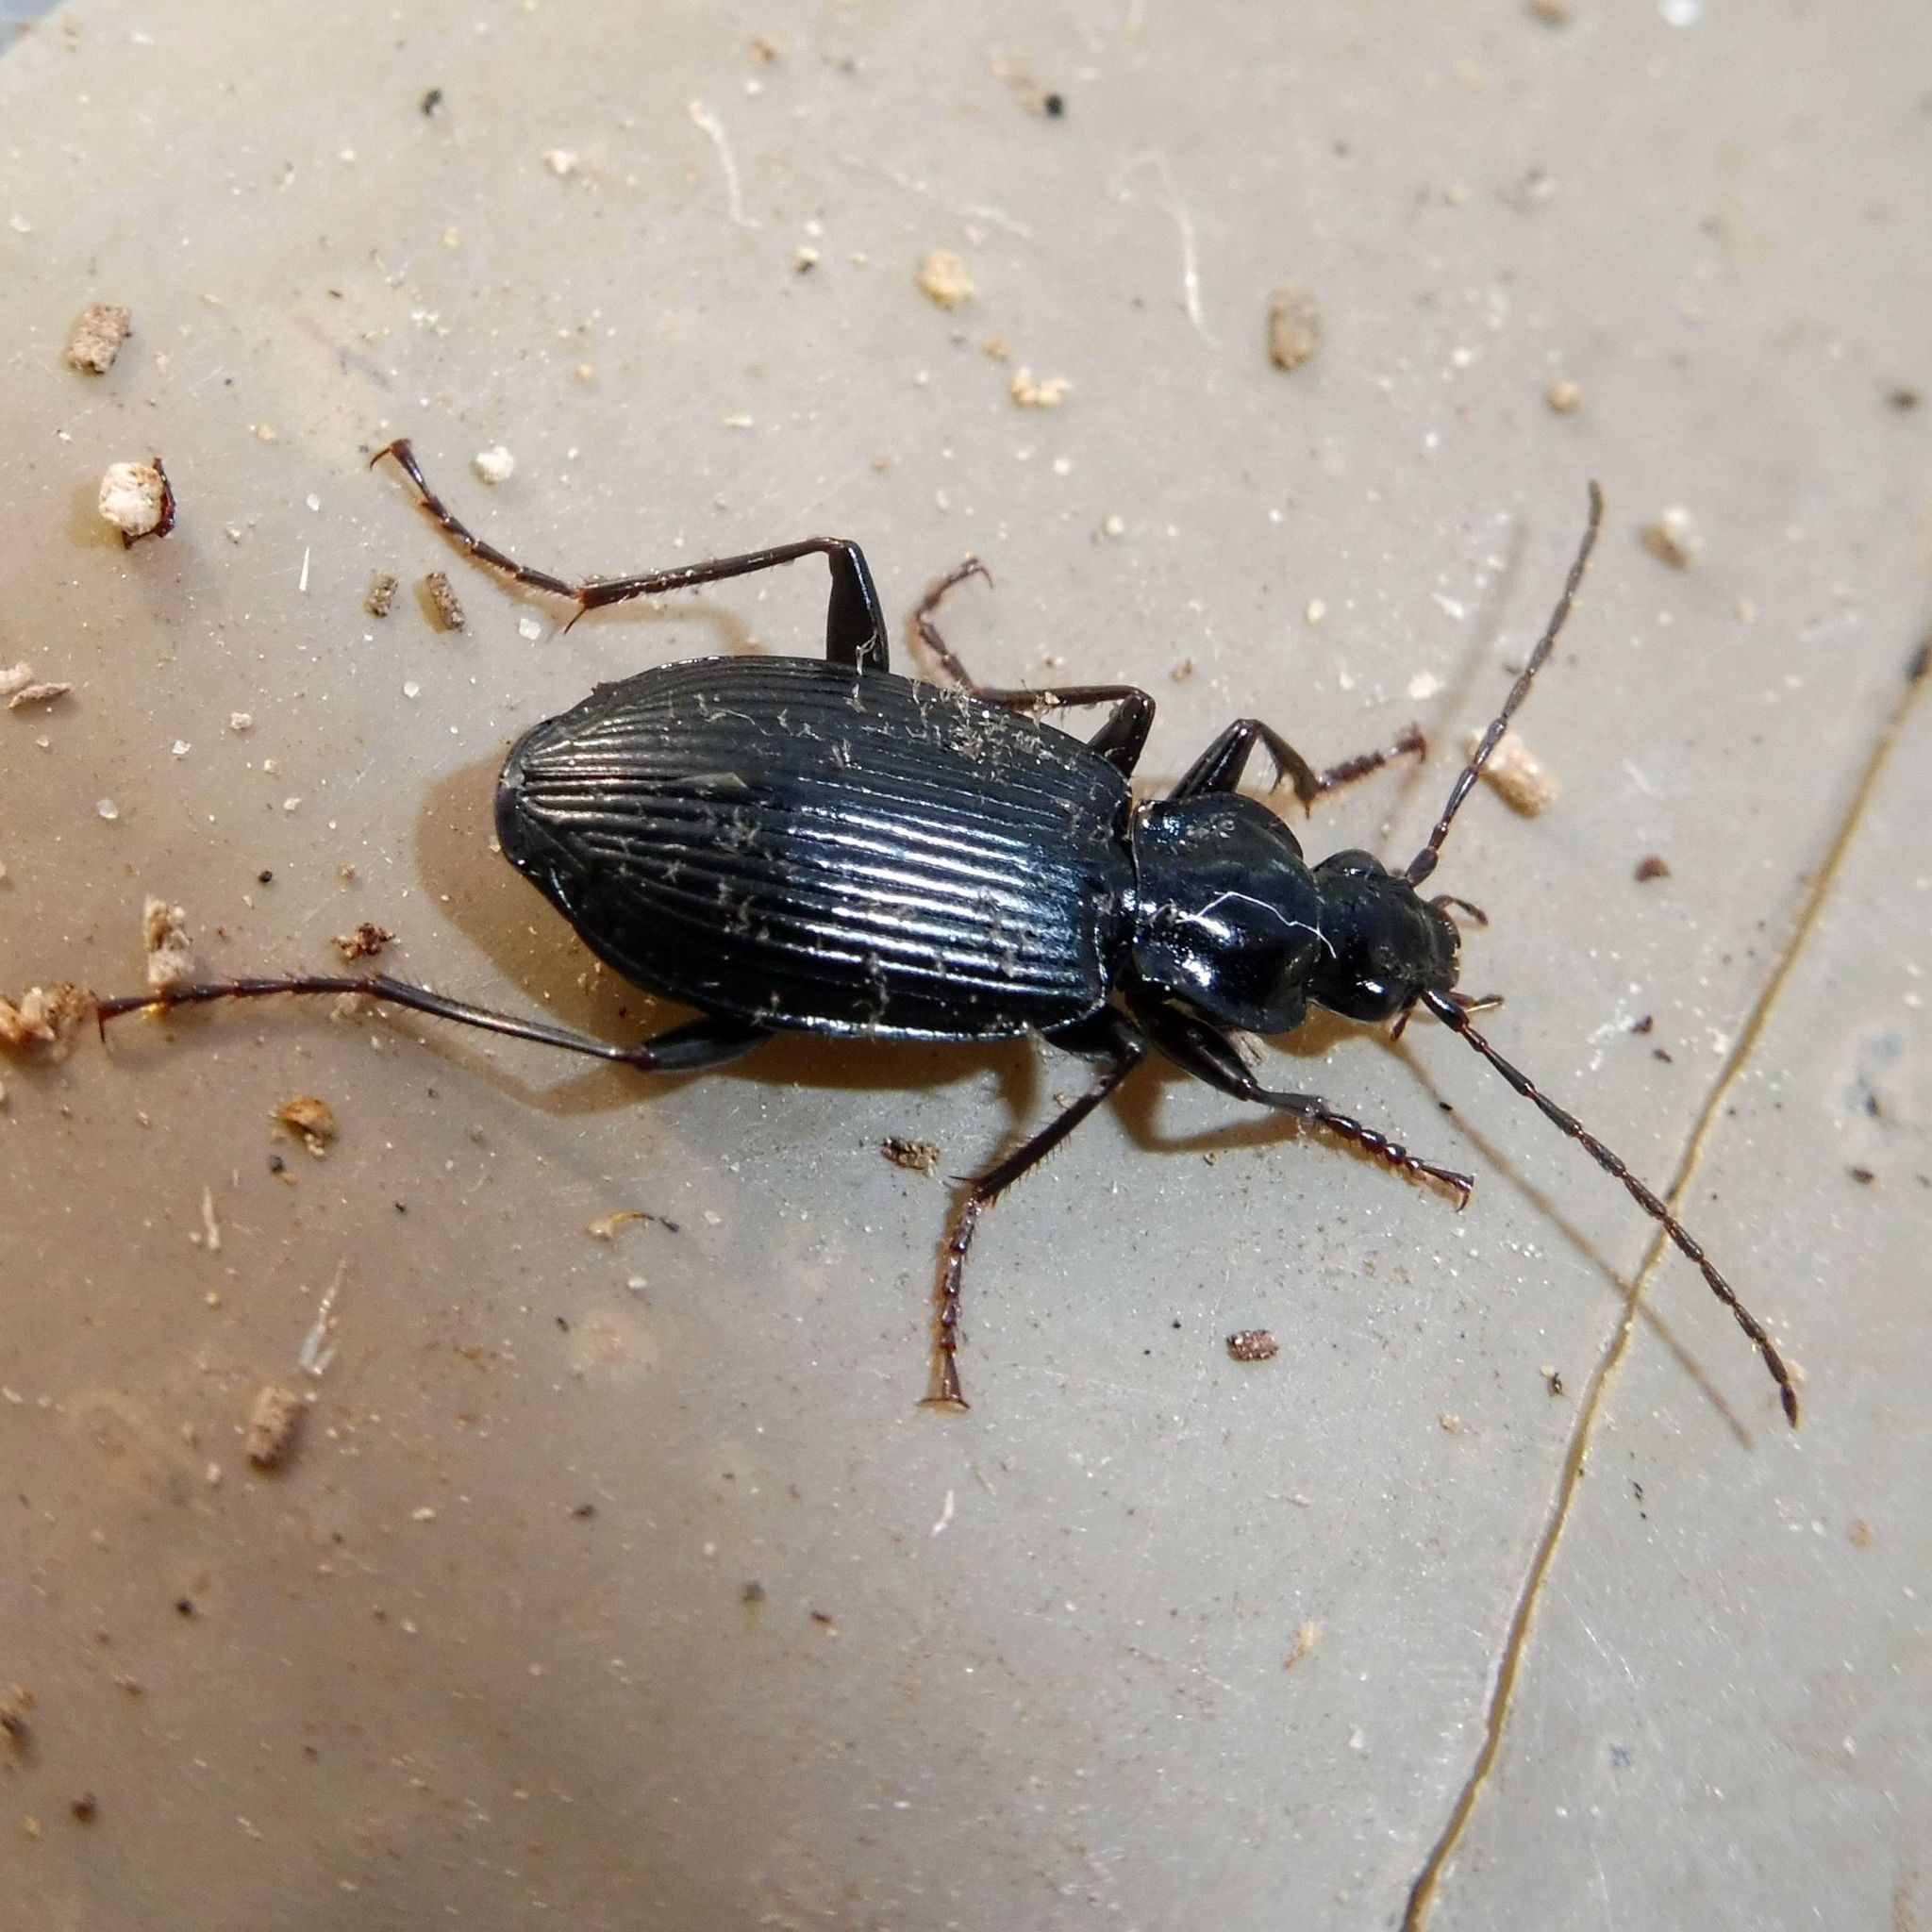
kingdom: Animalia
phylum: Arthropoda
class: Insecta
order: Coleoptera
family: Carabidae
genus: Platynus
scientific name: Platynus assimilis
